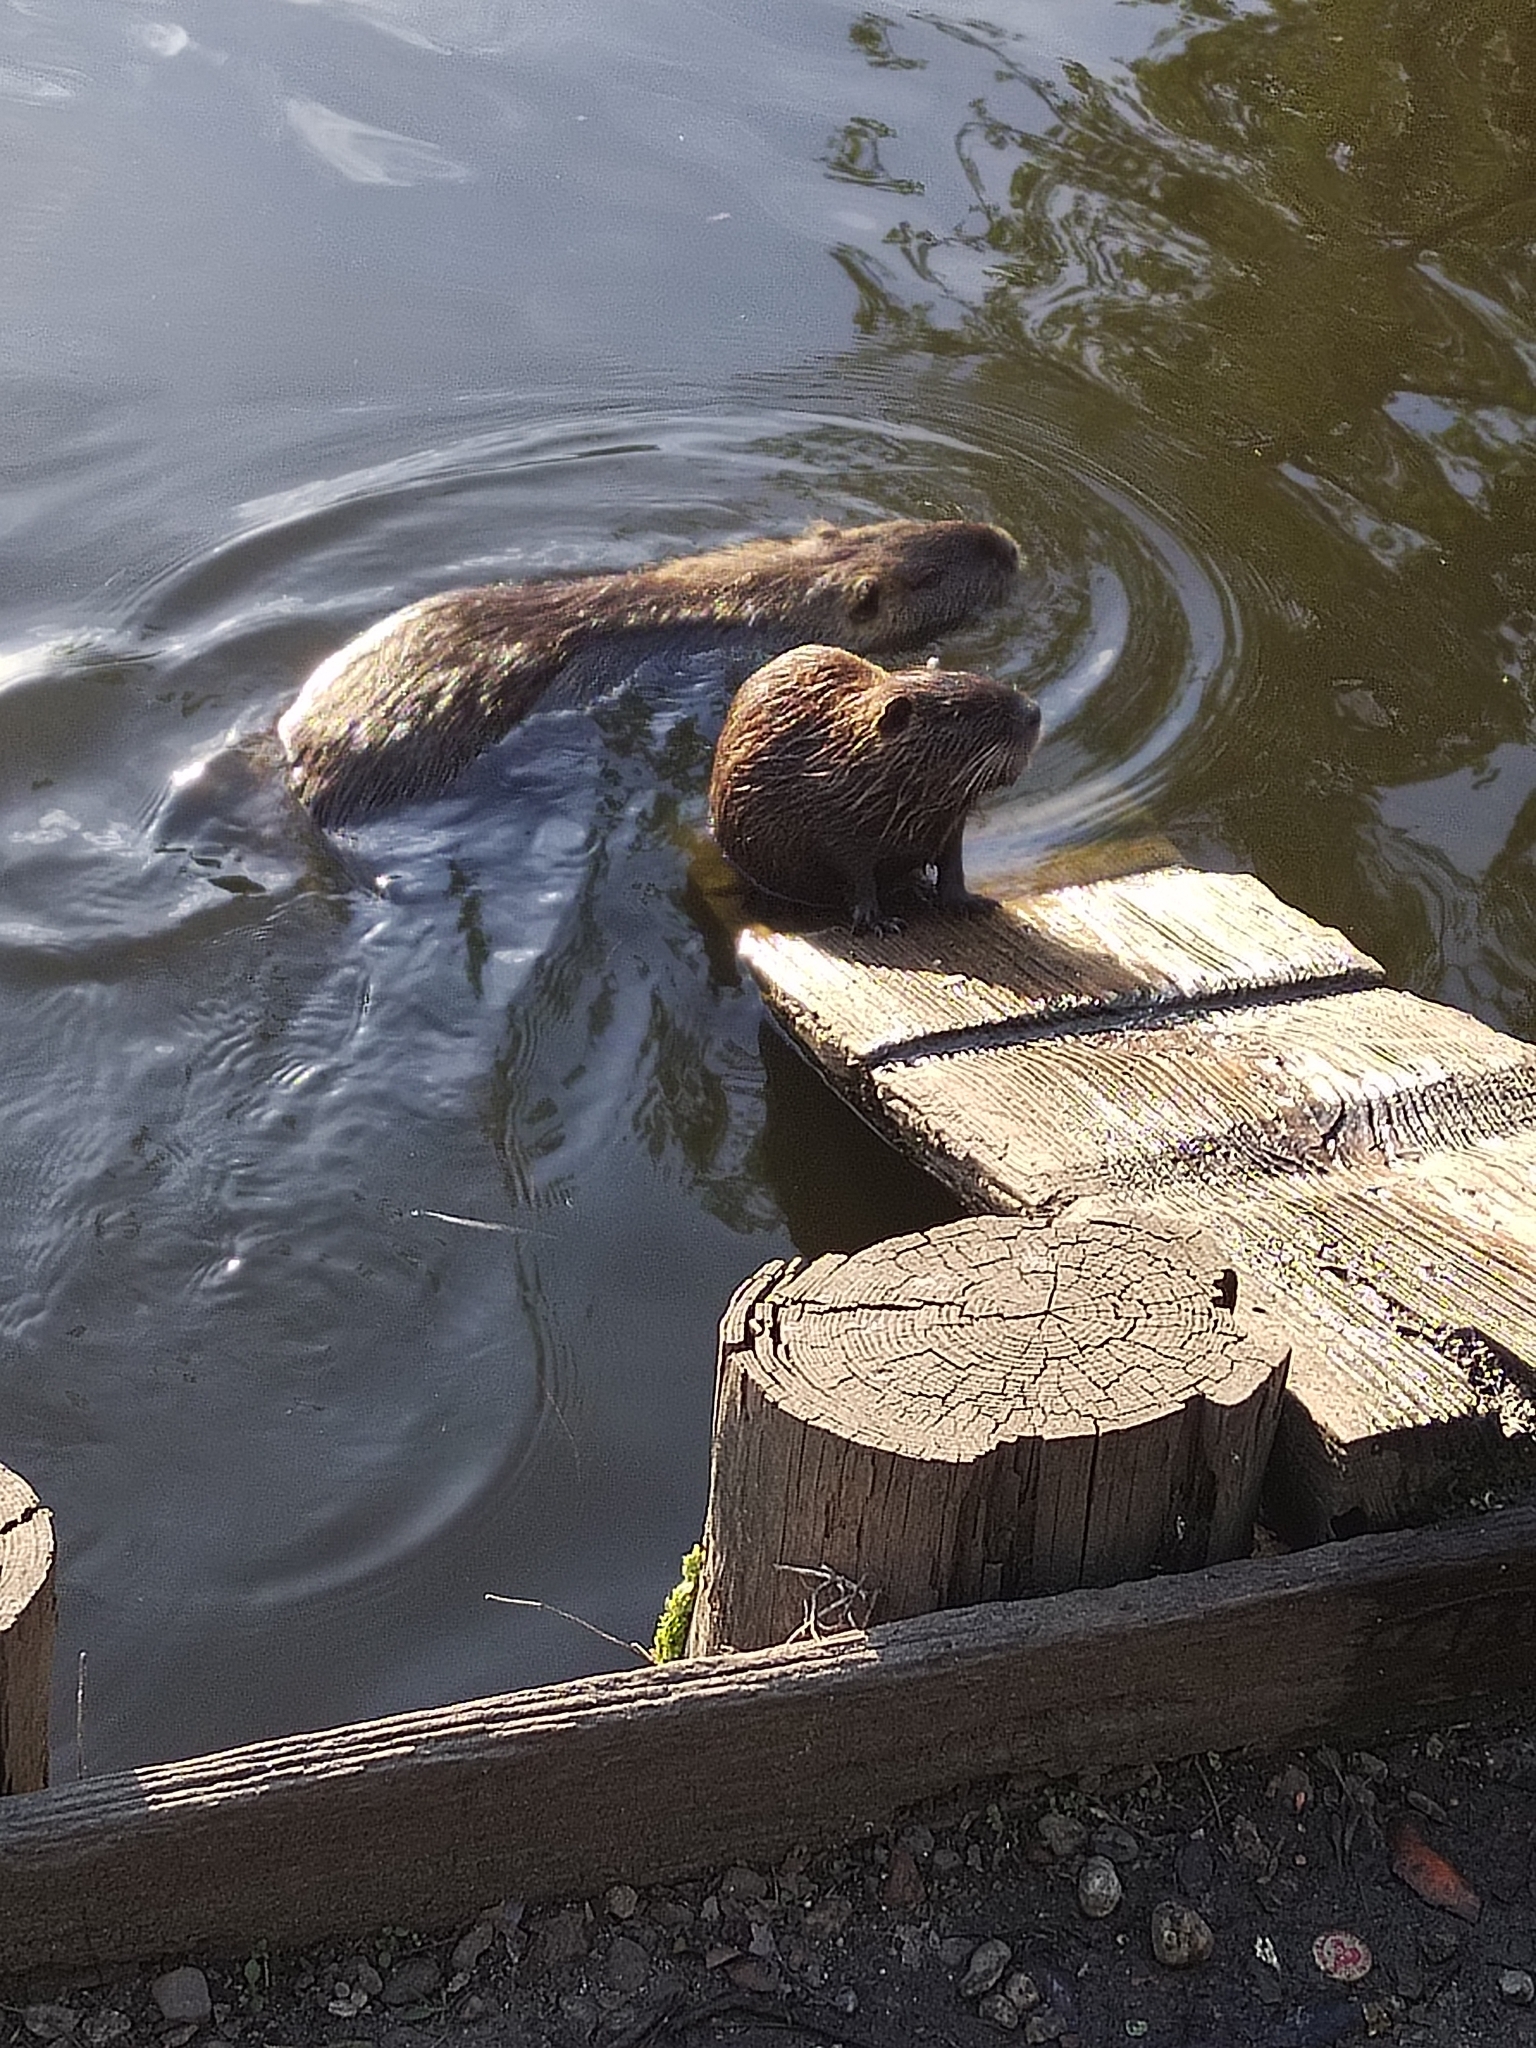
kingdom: Animalia
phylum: Chordata
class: Mammalia
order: Rodentia
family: Myocastoridae
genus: Myocastor
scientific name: Myocastor coypus
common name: Coypu
